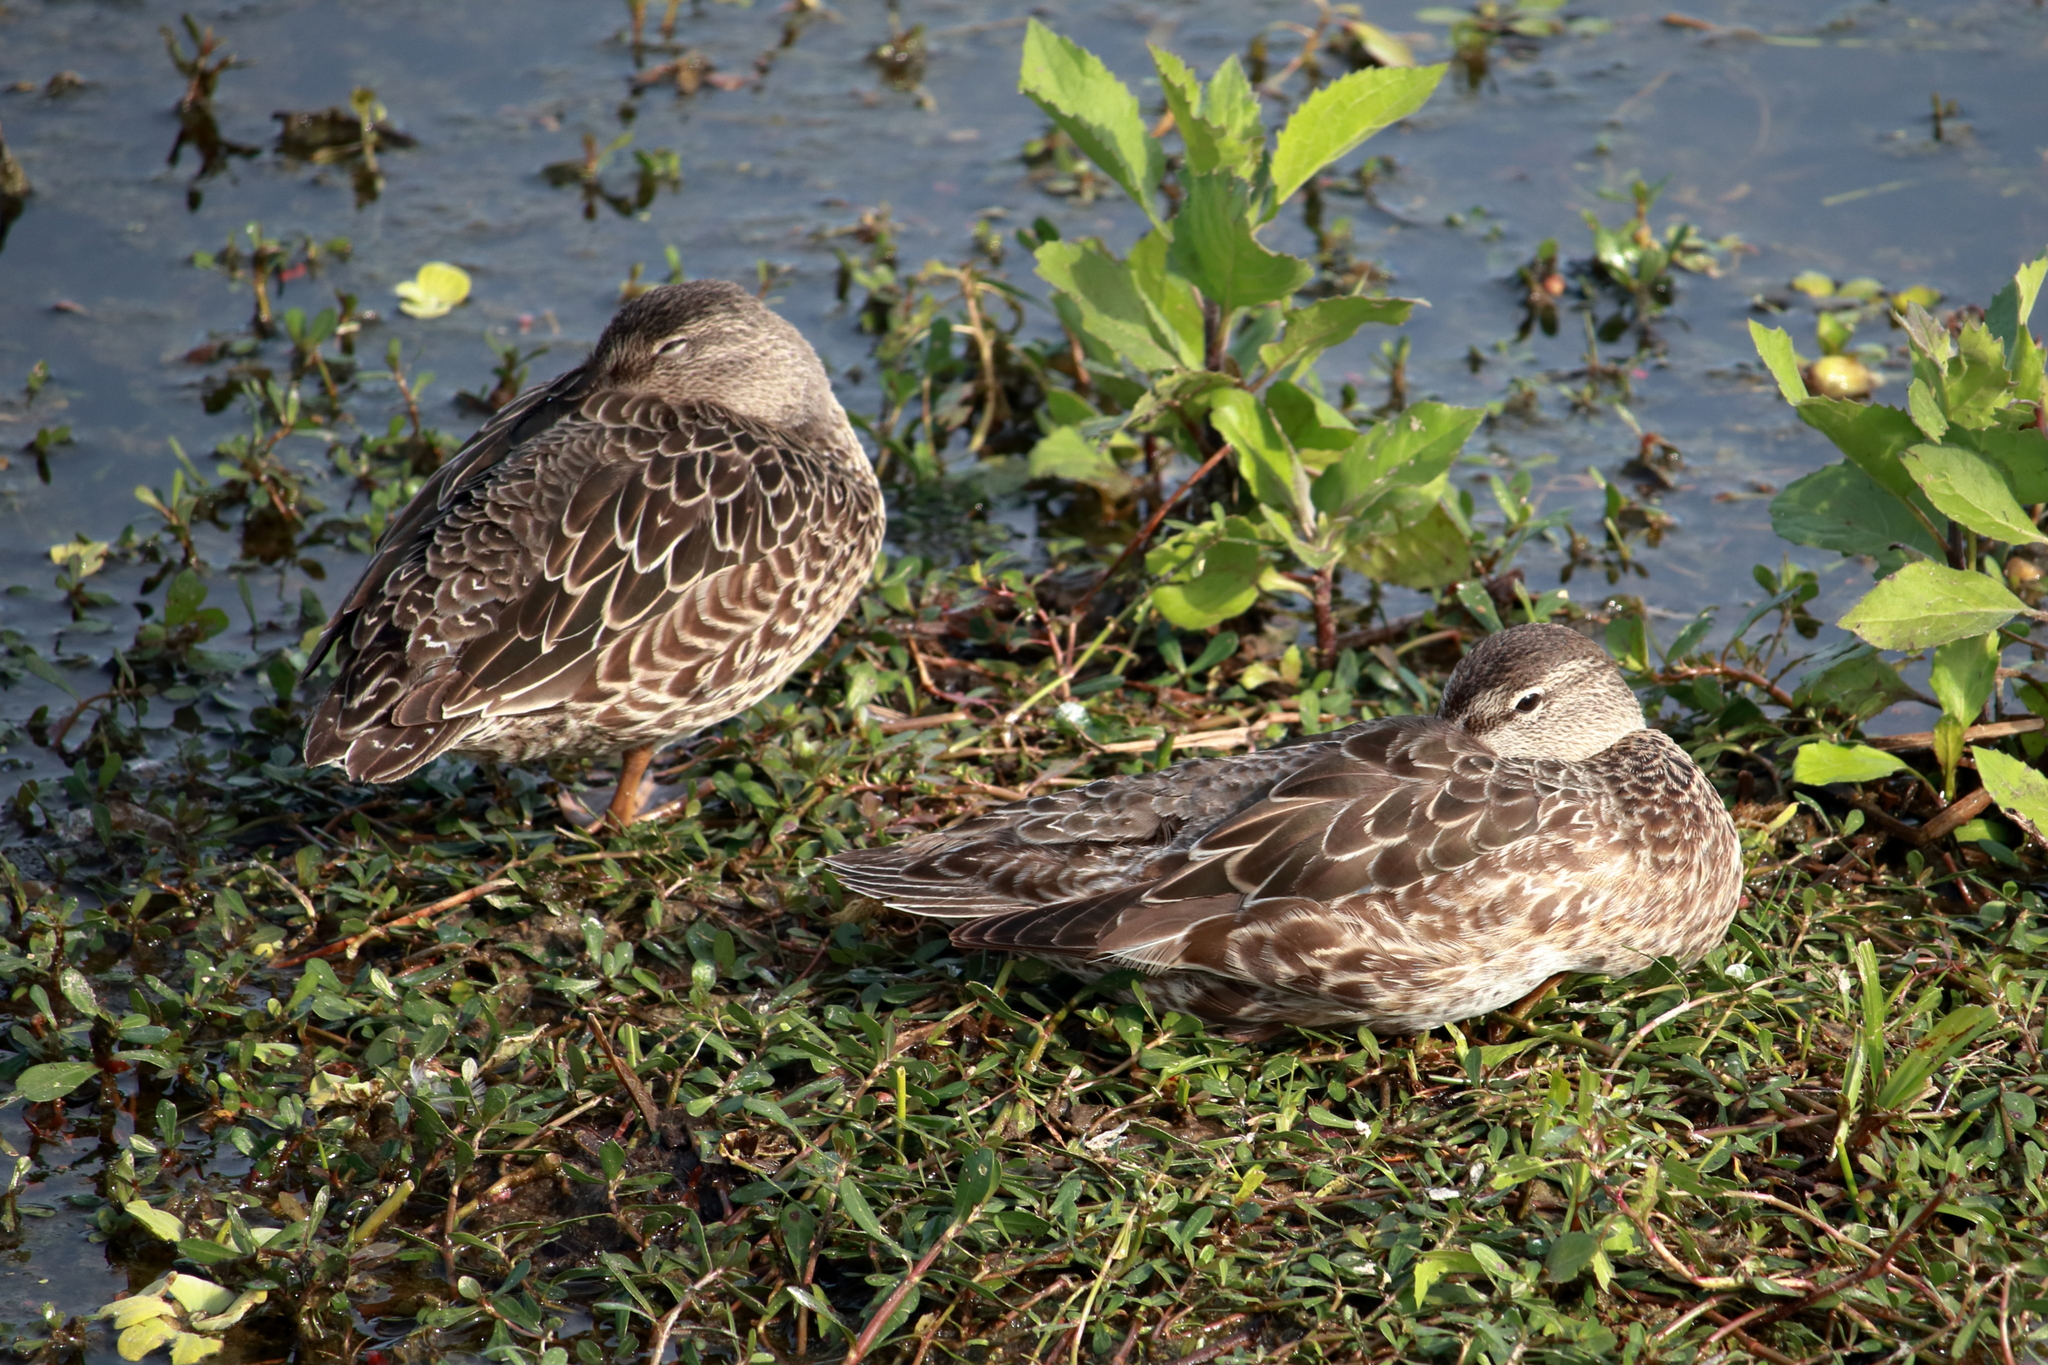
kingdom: Animalia
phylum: Chordata
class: Aves
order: Anseriformes
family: Anatidae
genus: Spatula
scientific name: Spatula discors
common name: Blue-winged teal
